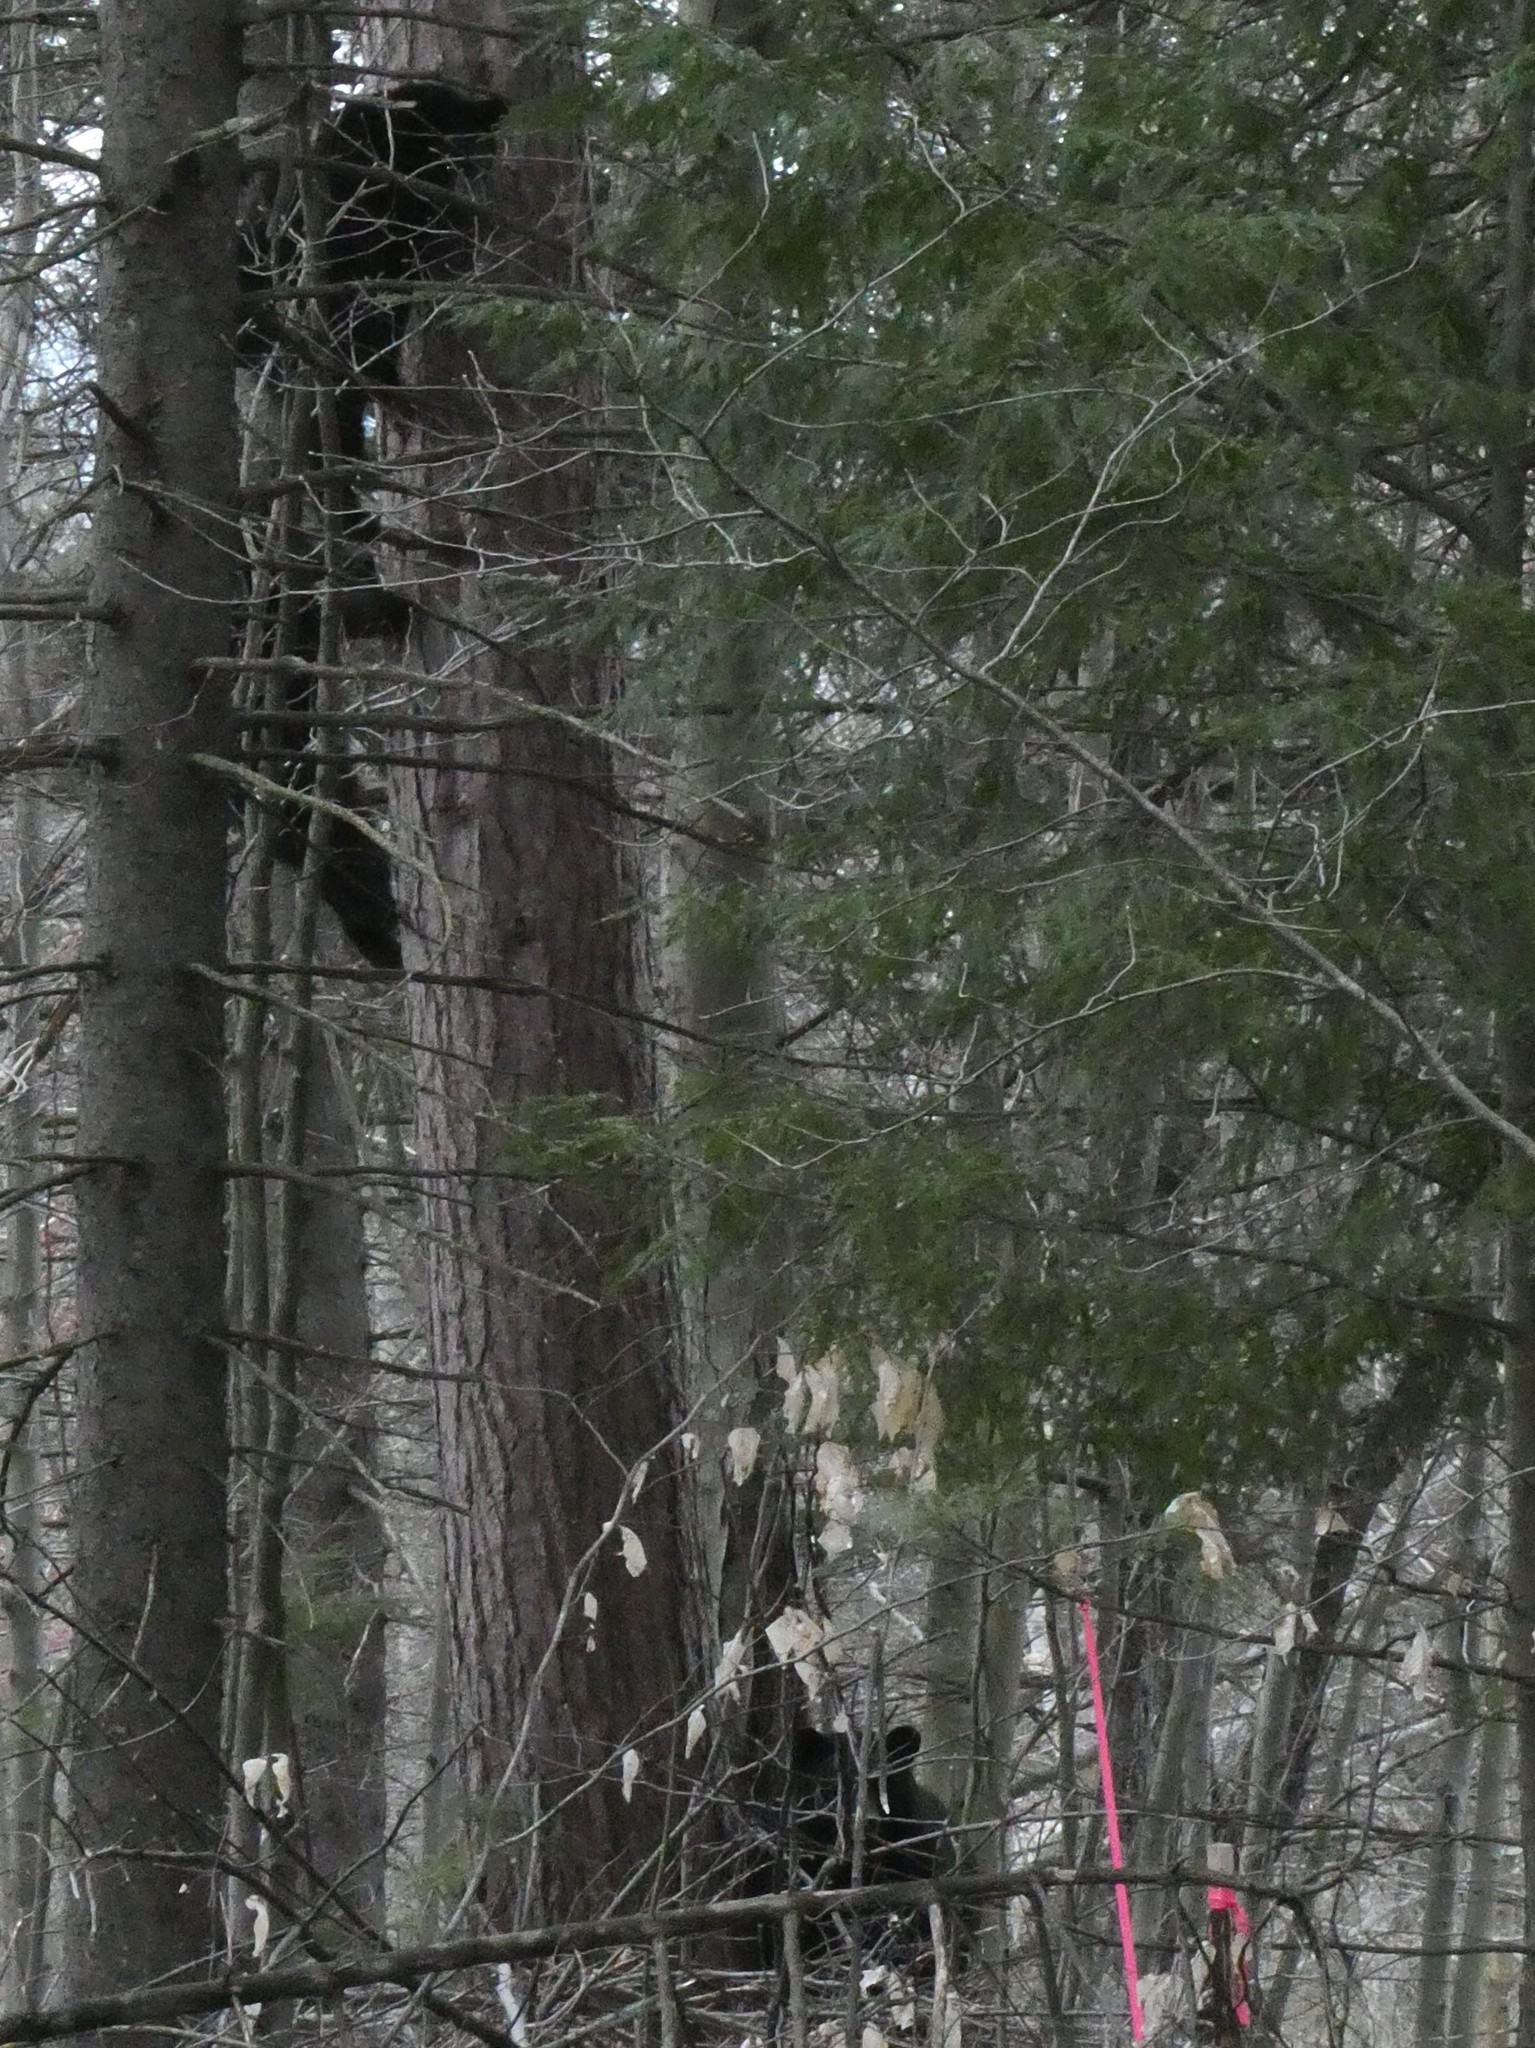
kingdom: Animalia
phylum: Chordata
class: Mammalia
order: Carnivora
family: Ursidae
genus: Ursus
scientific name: Ursus americanus
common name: American black bear
